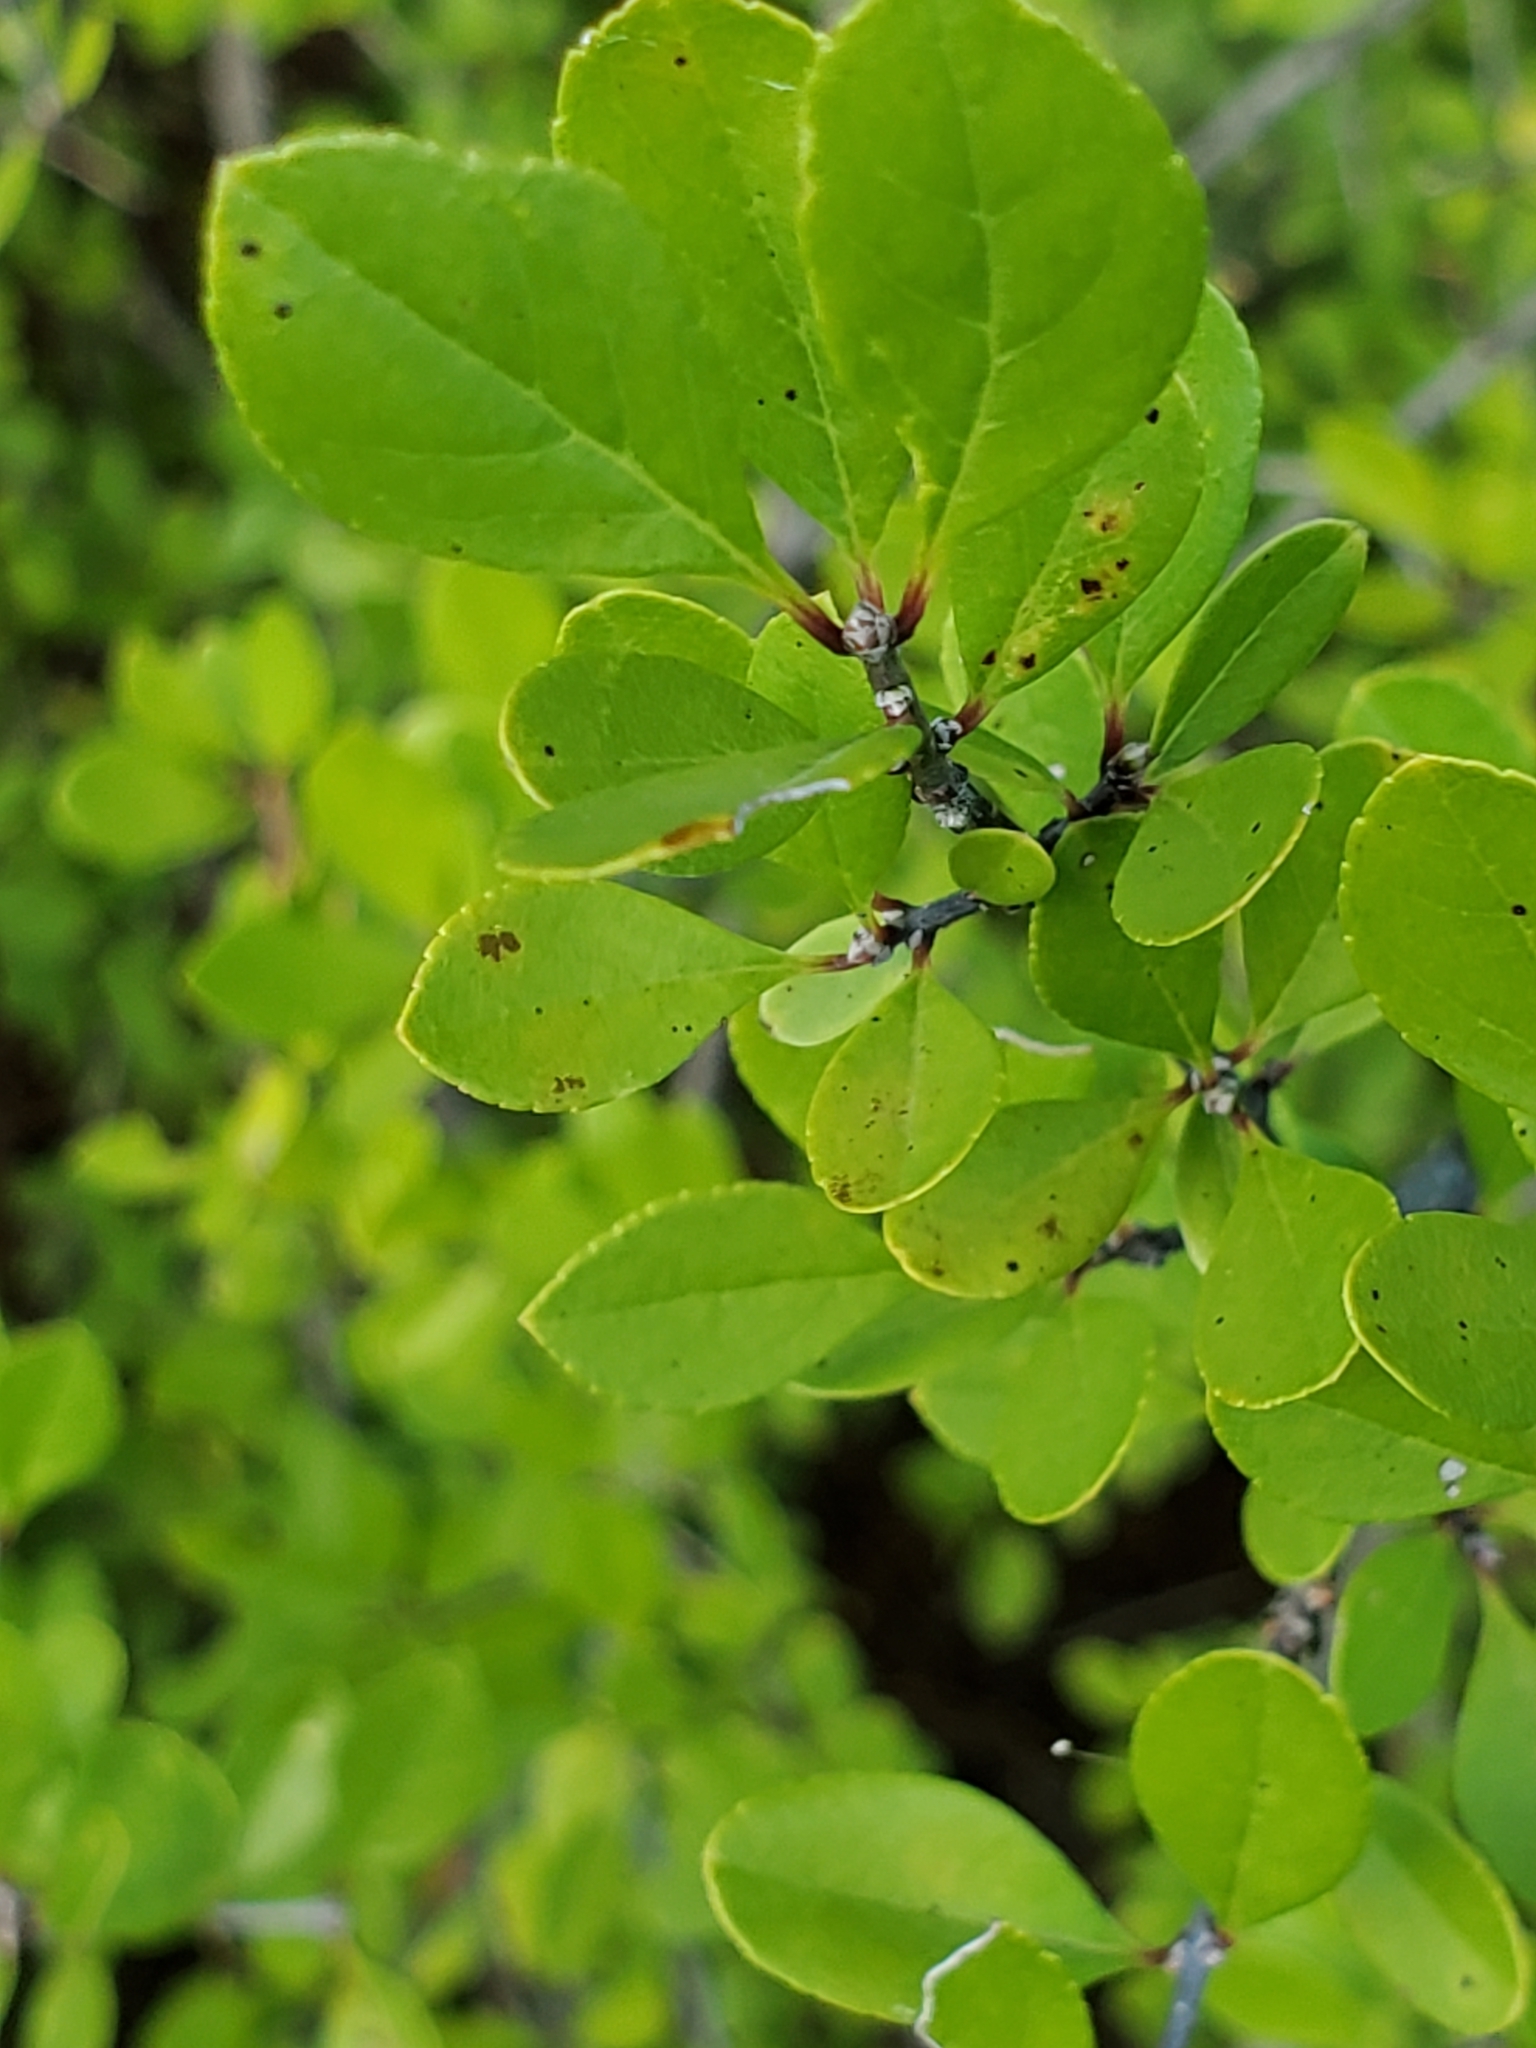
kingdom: Plantae
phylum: Tracheophyta
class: Magnoliopsida
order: Lamiales
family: Oleaceae
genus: Forestiera
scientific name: Forestiera pubescens
